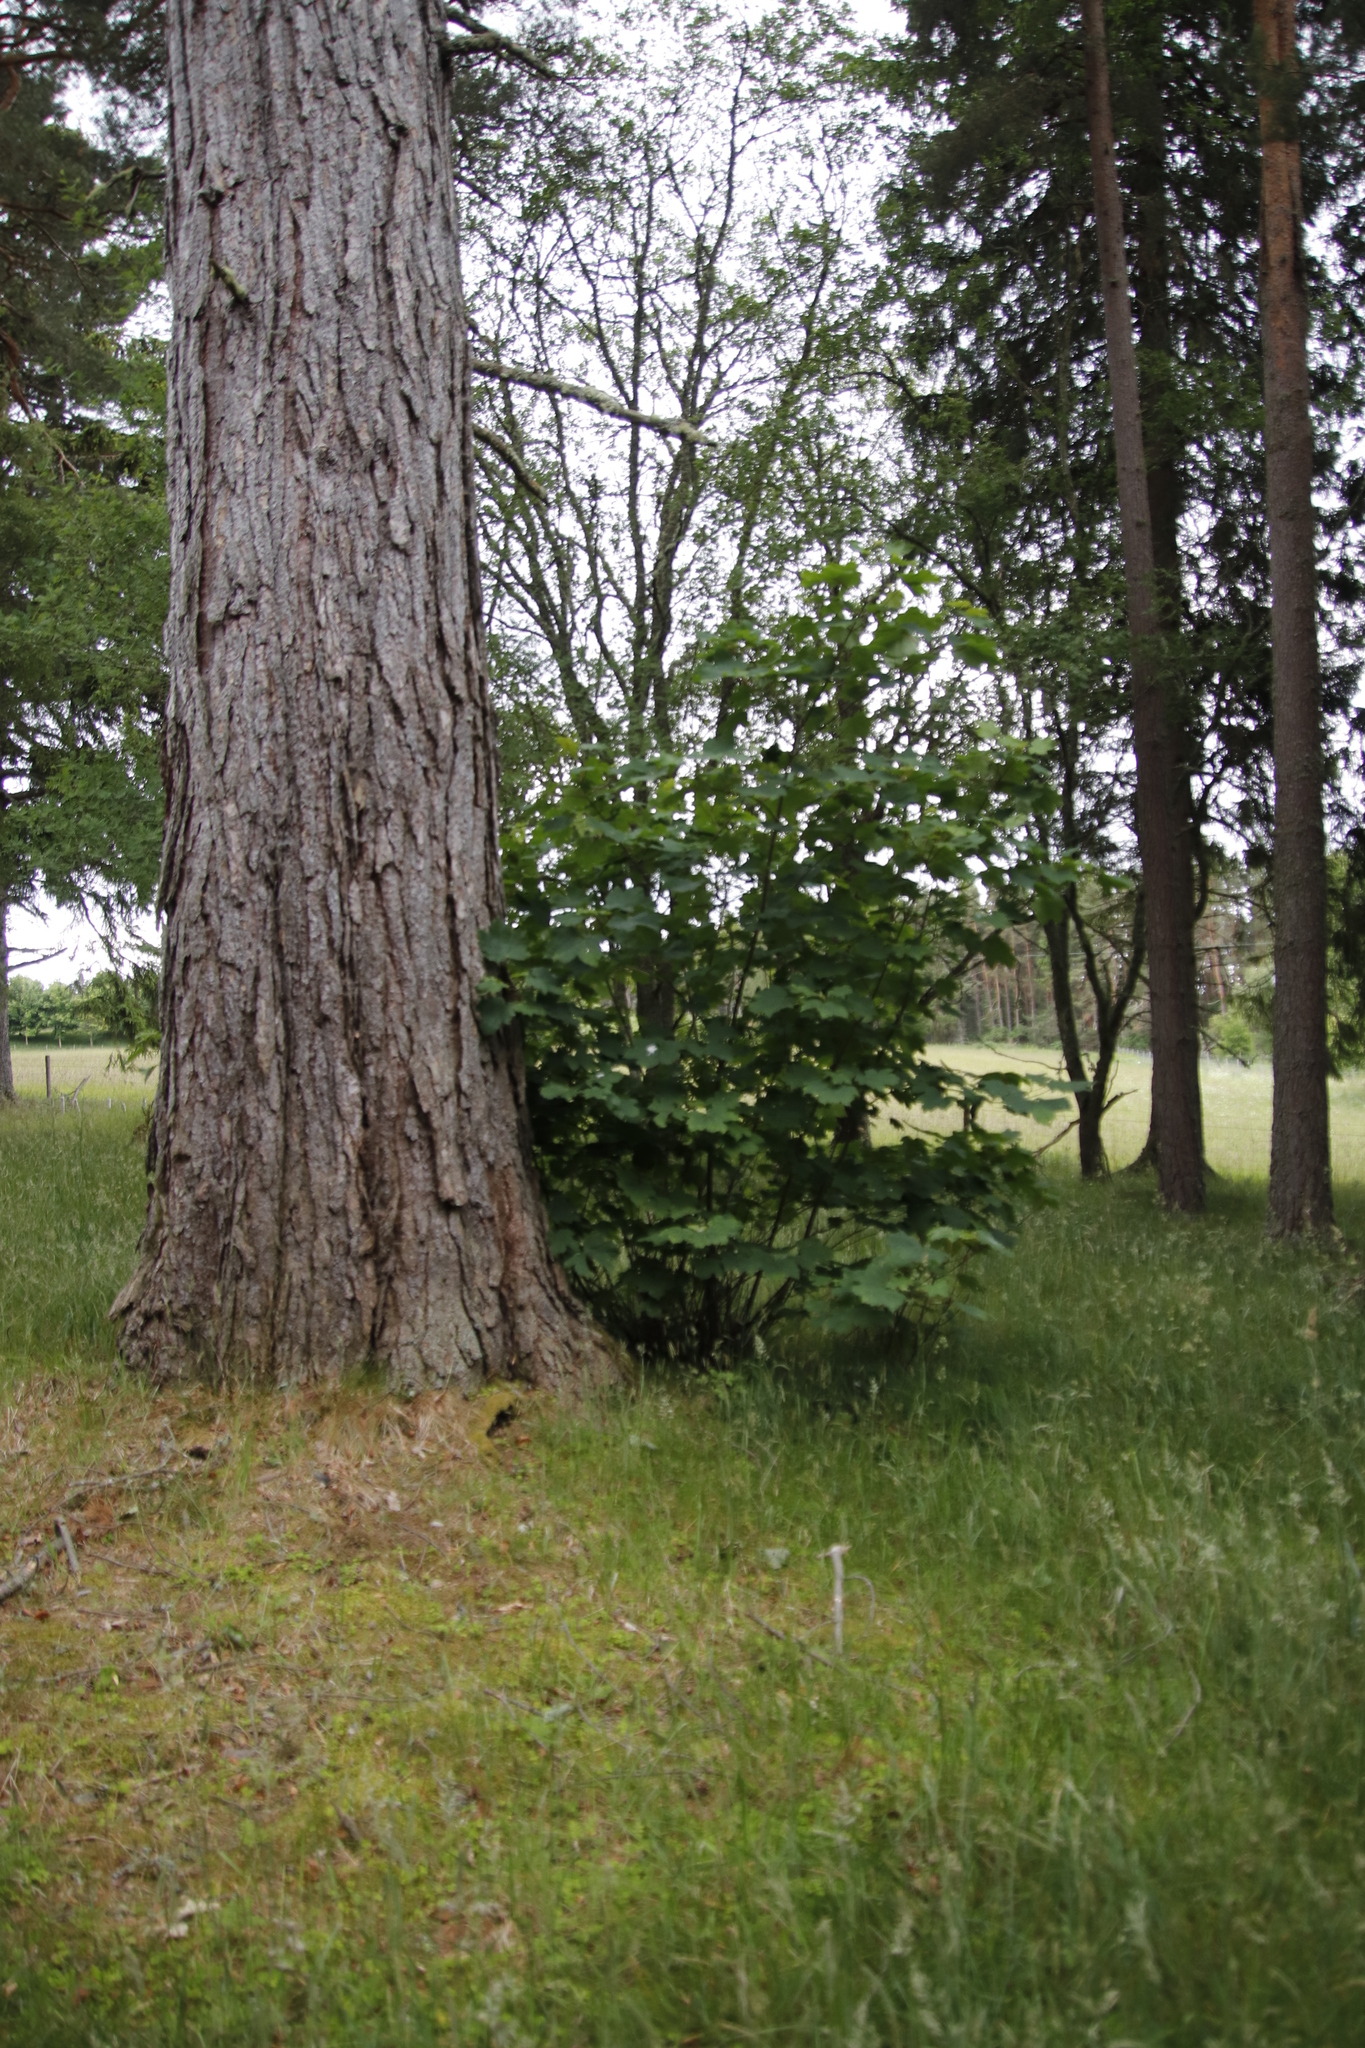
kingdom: Plantae
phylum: Tracheophyta
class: Magnoliopsida
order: Sapindales
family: Sapindaceae
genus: Acer
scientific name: Acer pseudoplatanus
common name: Sycamore
